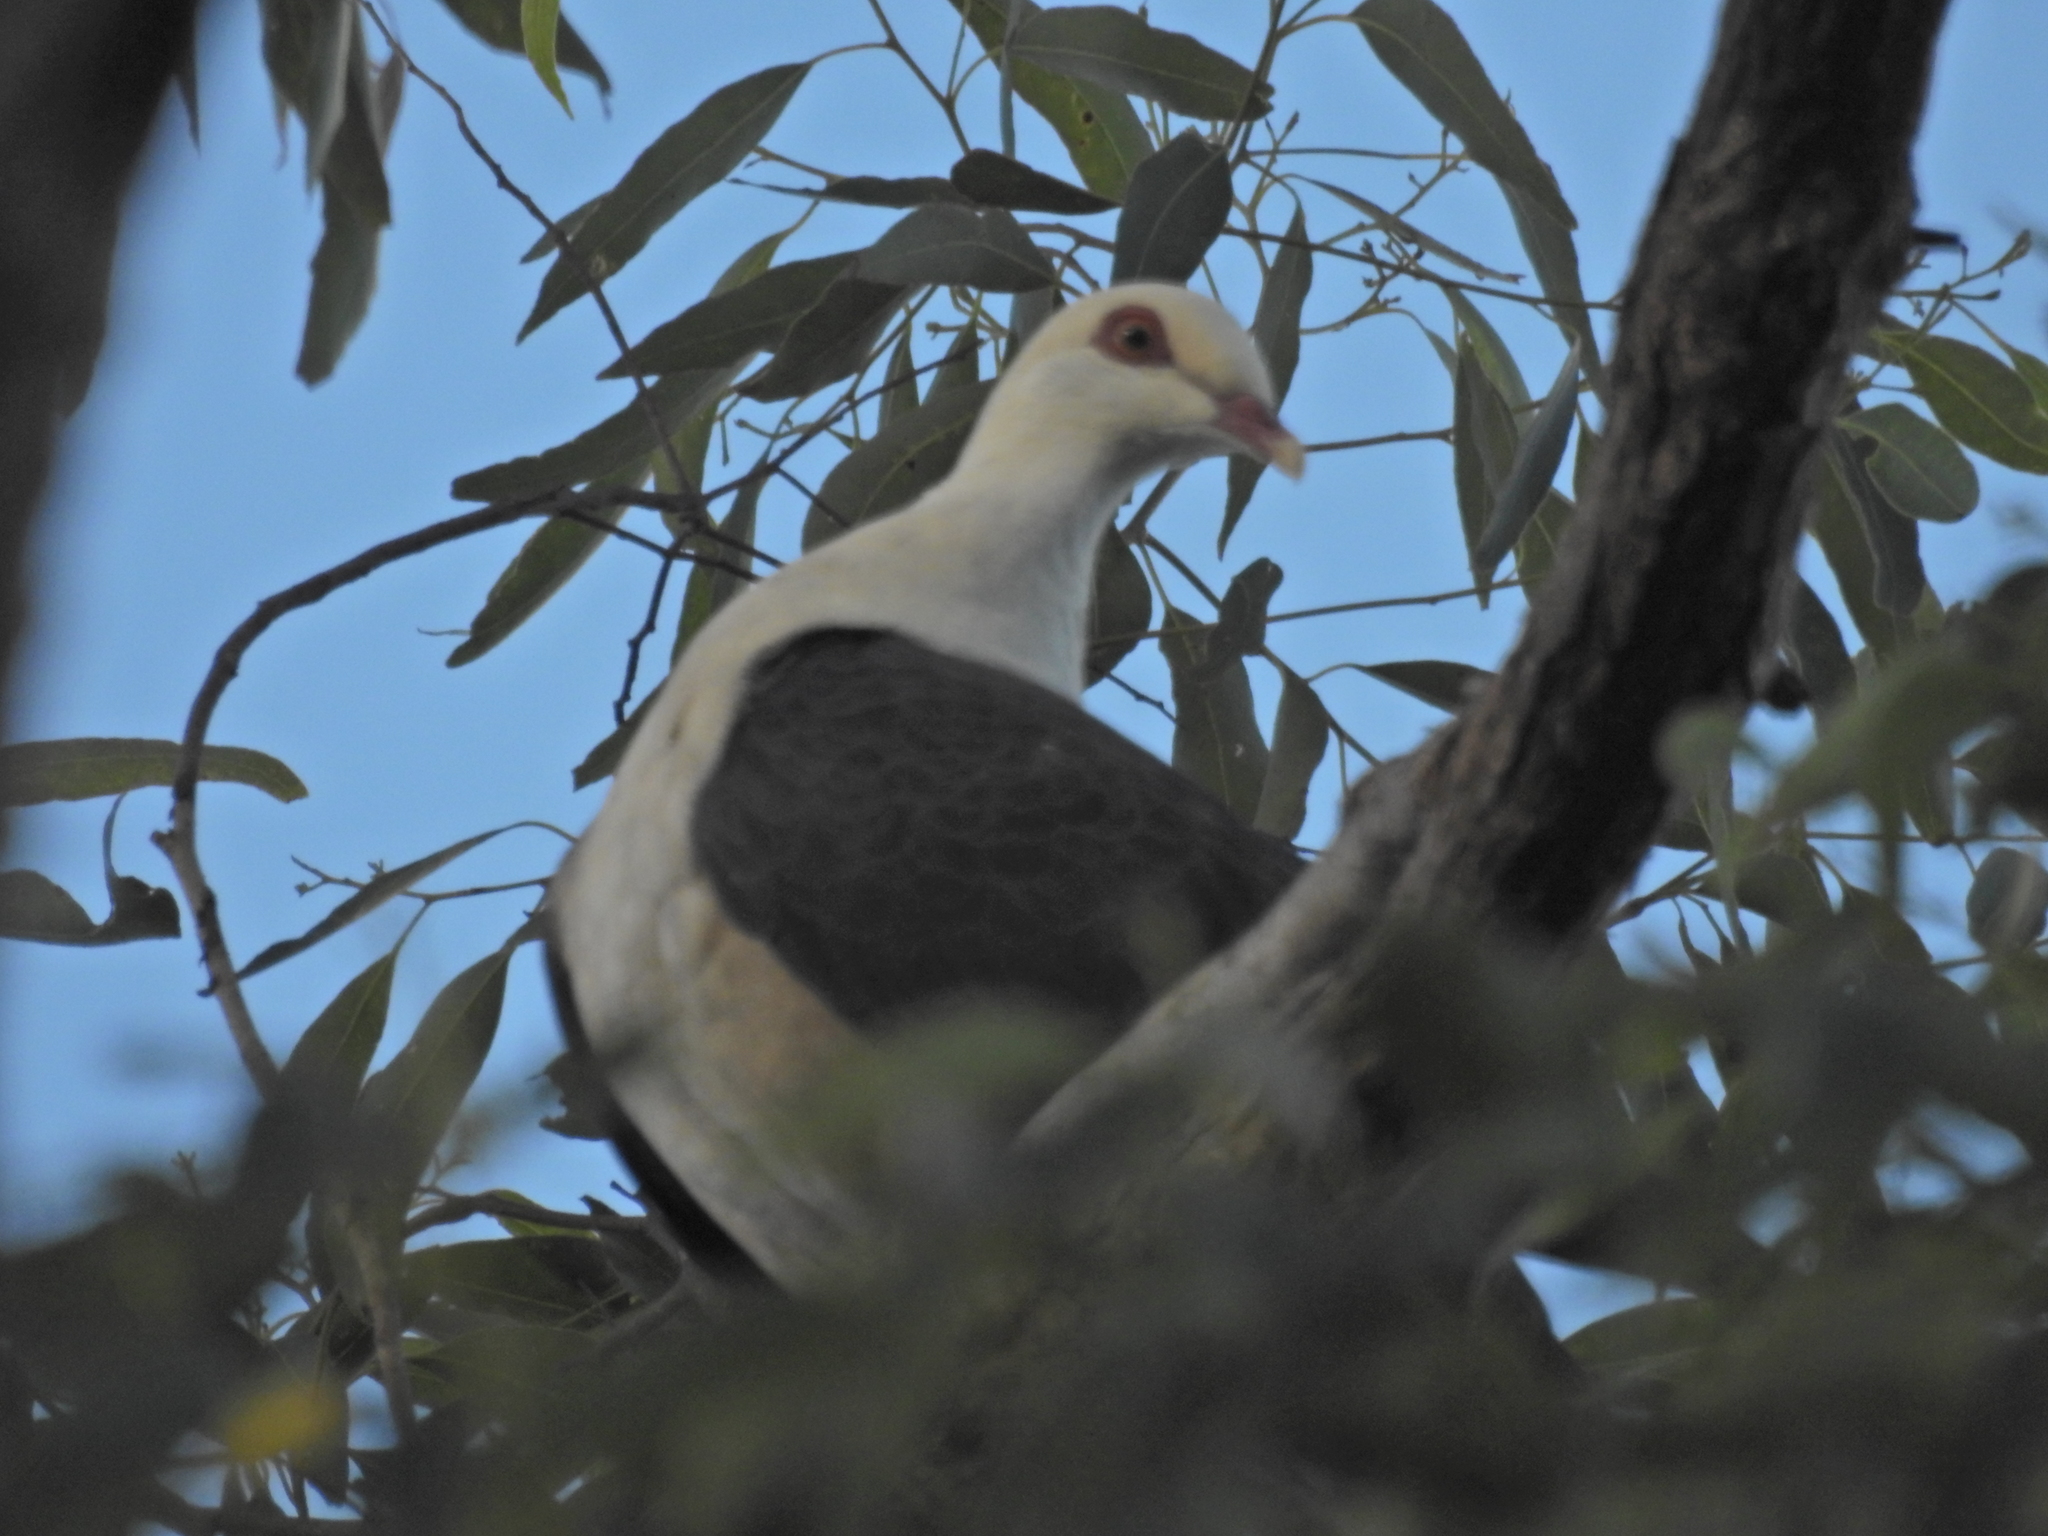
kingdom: Animalia
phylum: Chordata
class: Aves
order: Columbiformes
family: Columbidae
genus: Columba
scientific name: Columba leucomela
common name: White-headed pigeon
